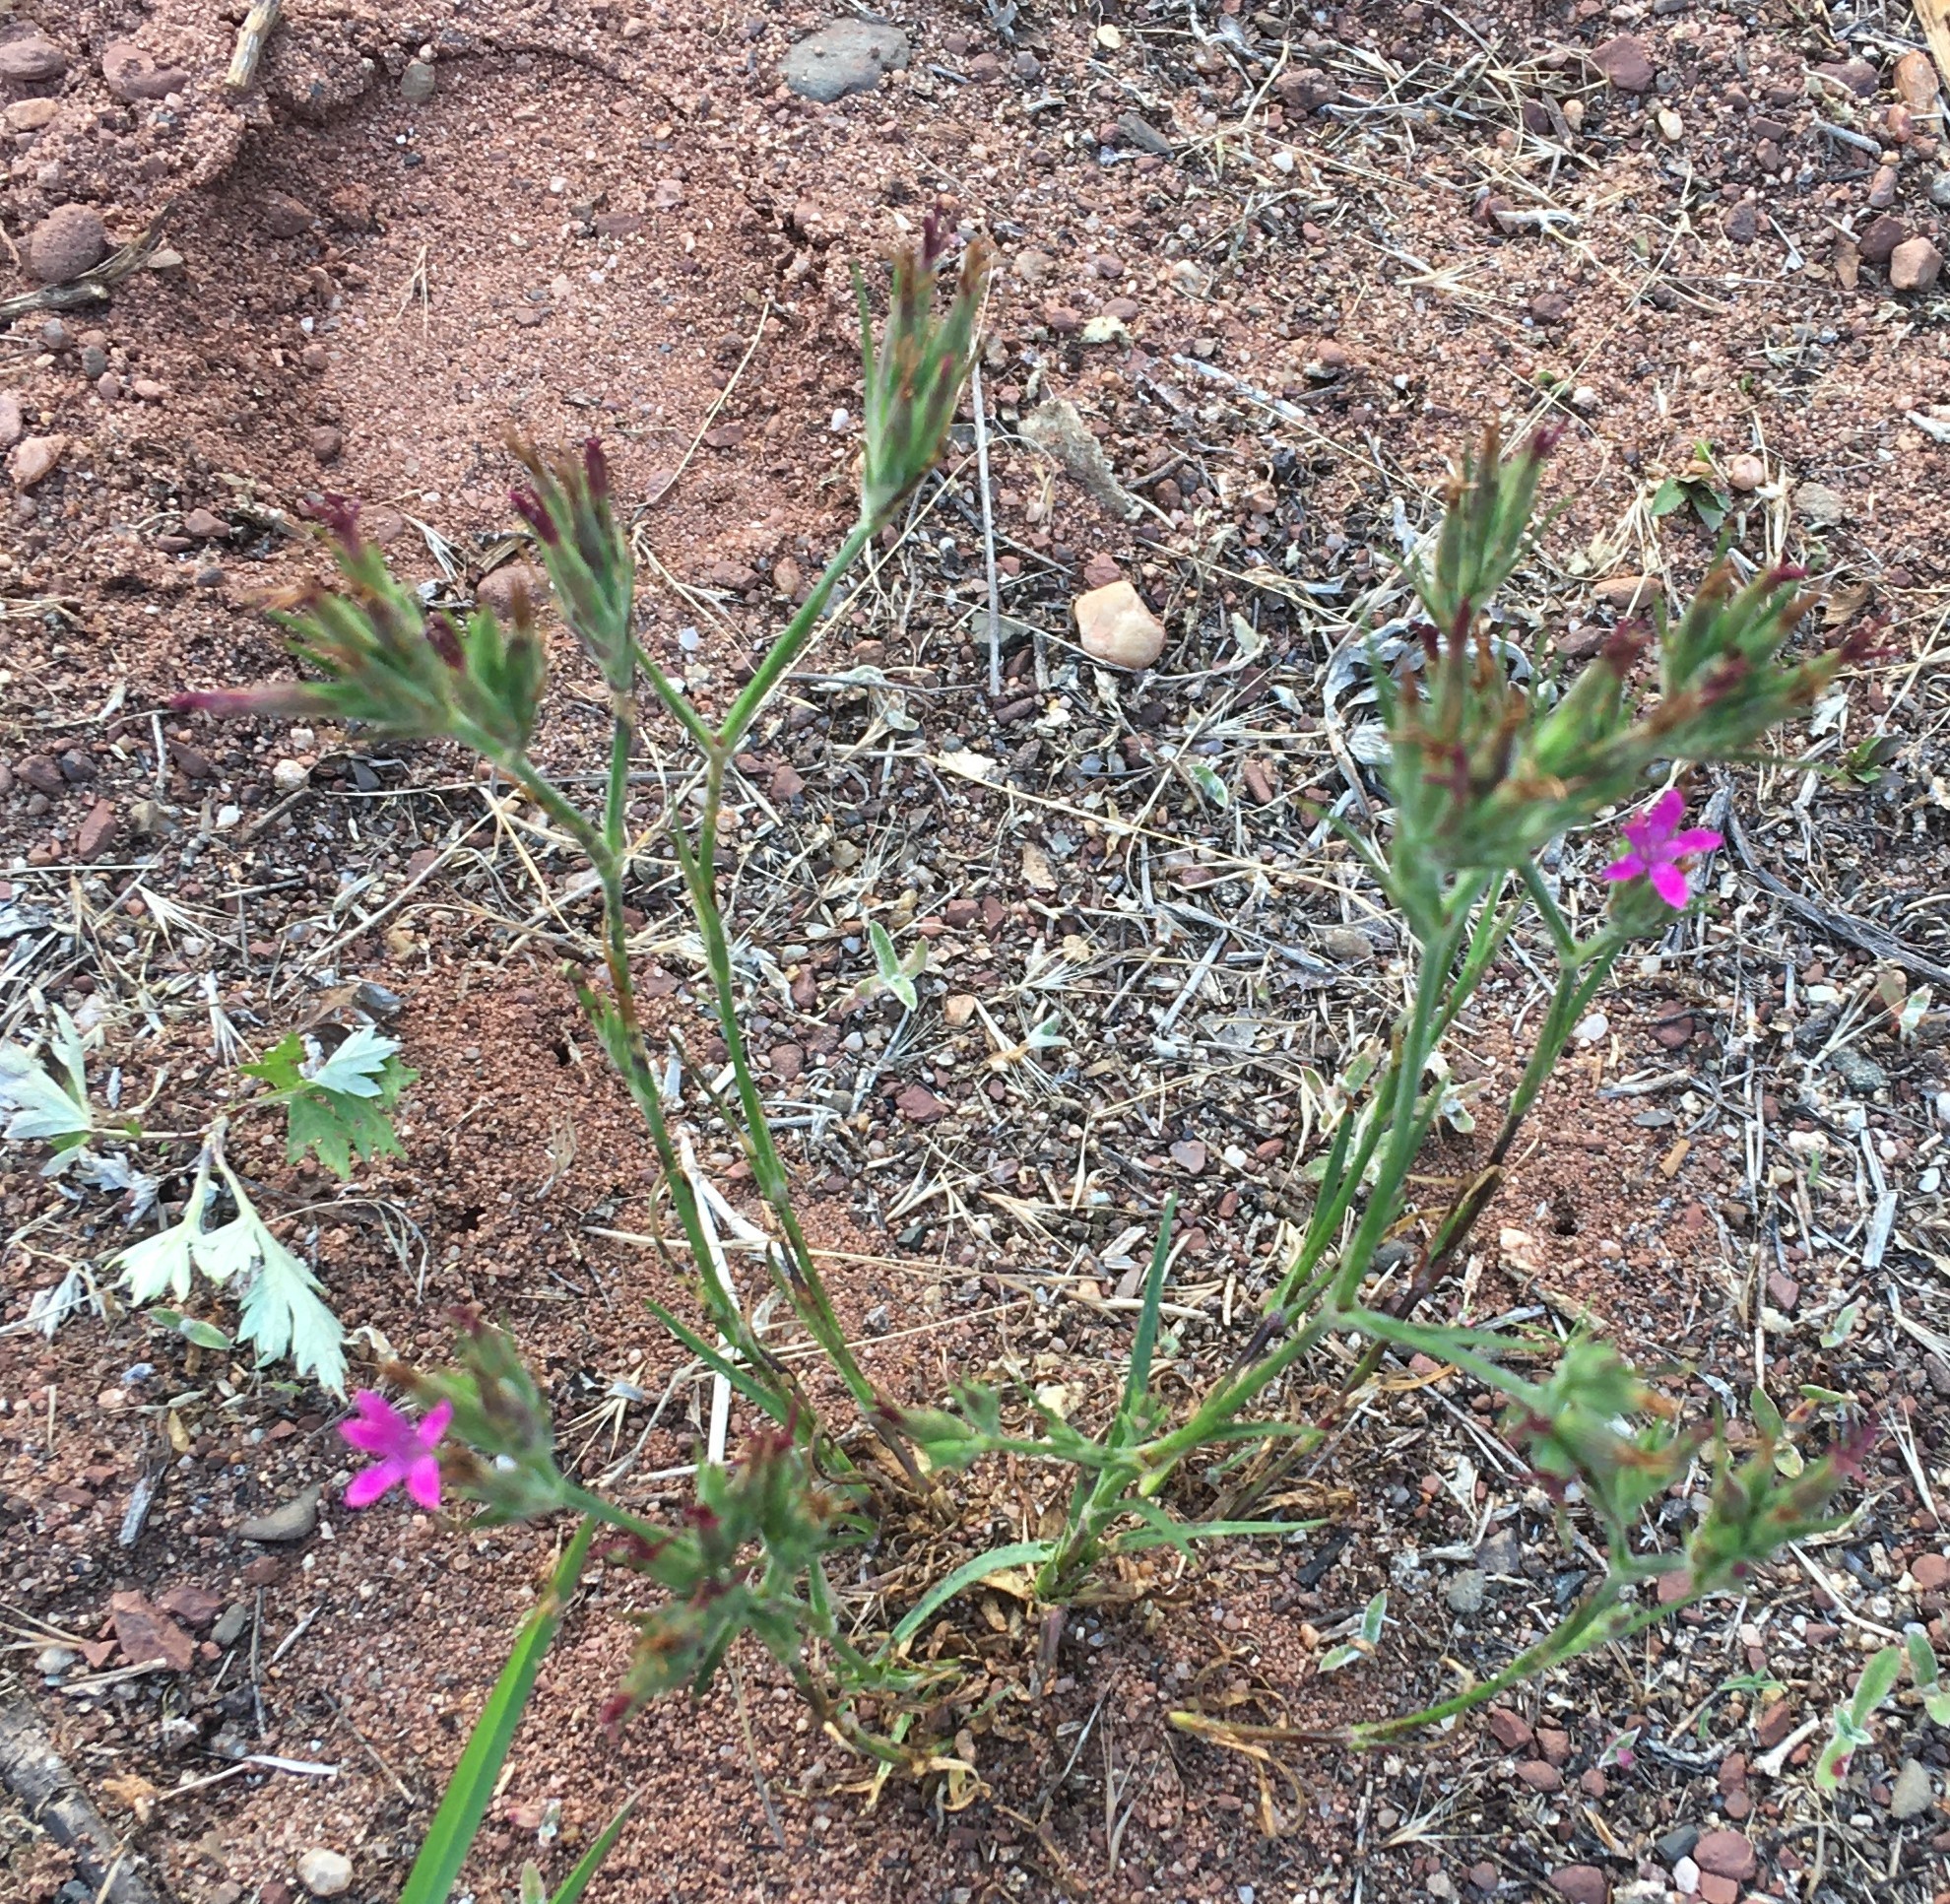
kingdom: Plantae
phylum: Tracheophyta
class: Magnoliopsida
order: Caryophyllales
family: Caryophyllaceae
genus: Dianthus
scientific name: Dianthus armeria
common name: Deptford pink
